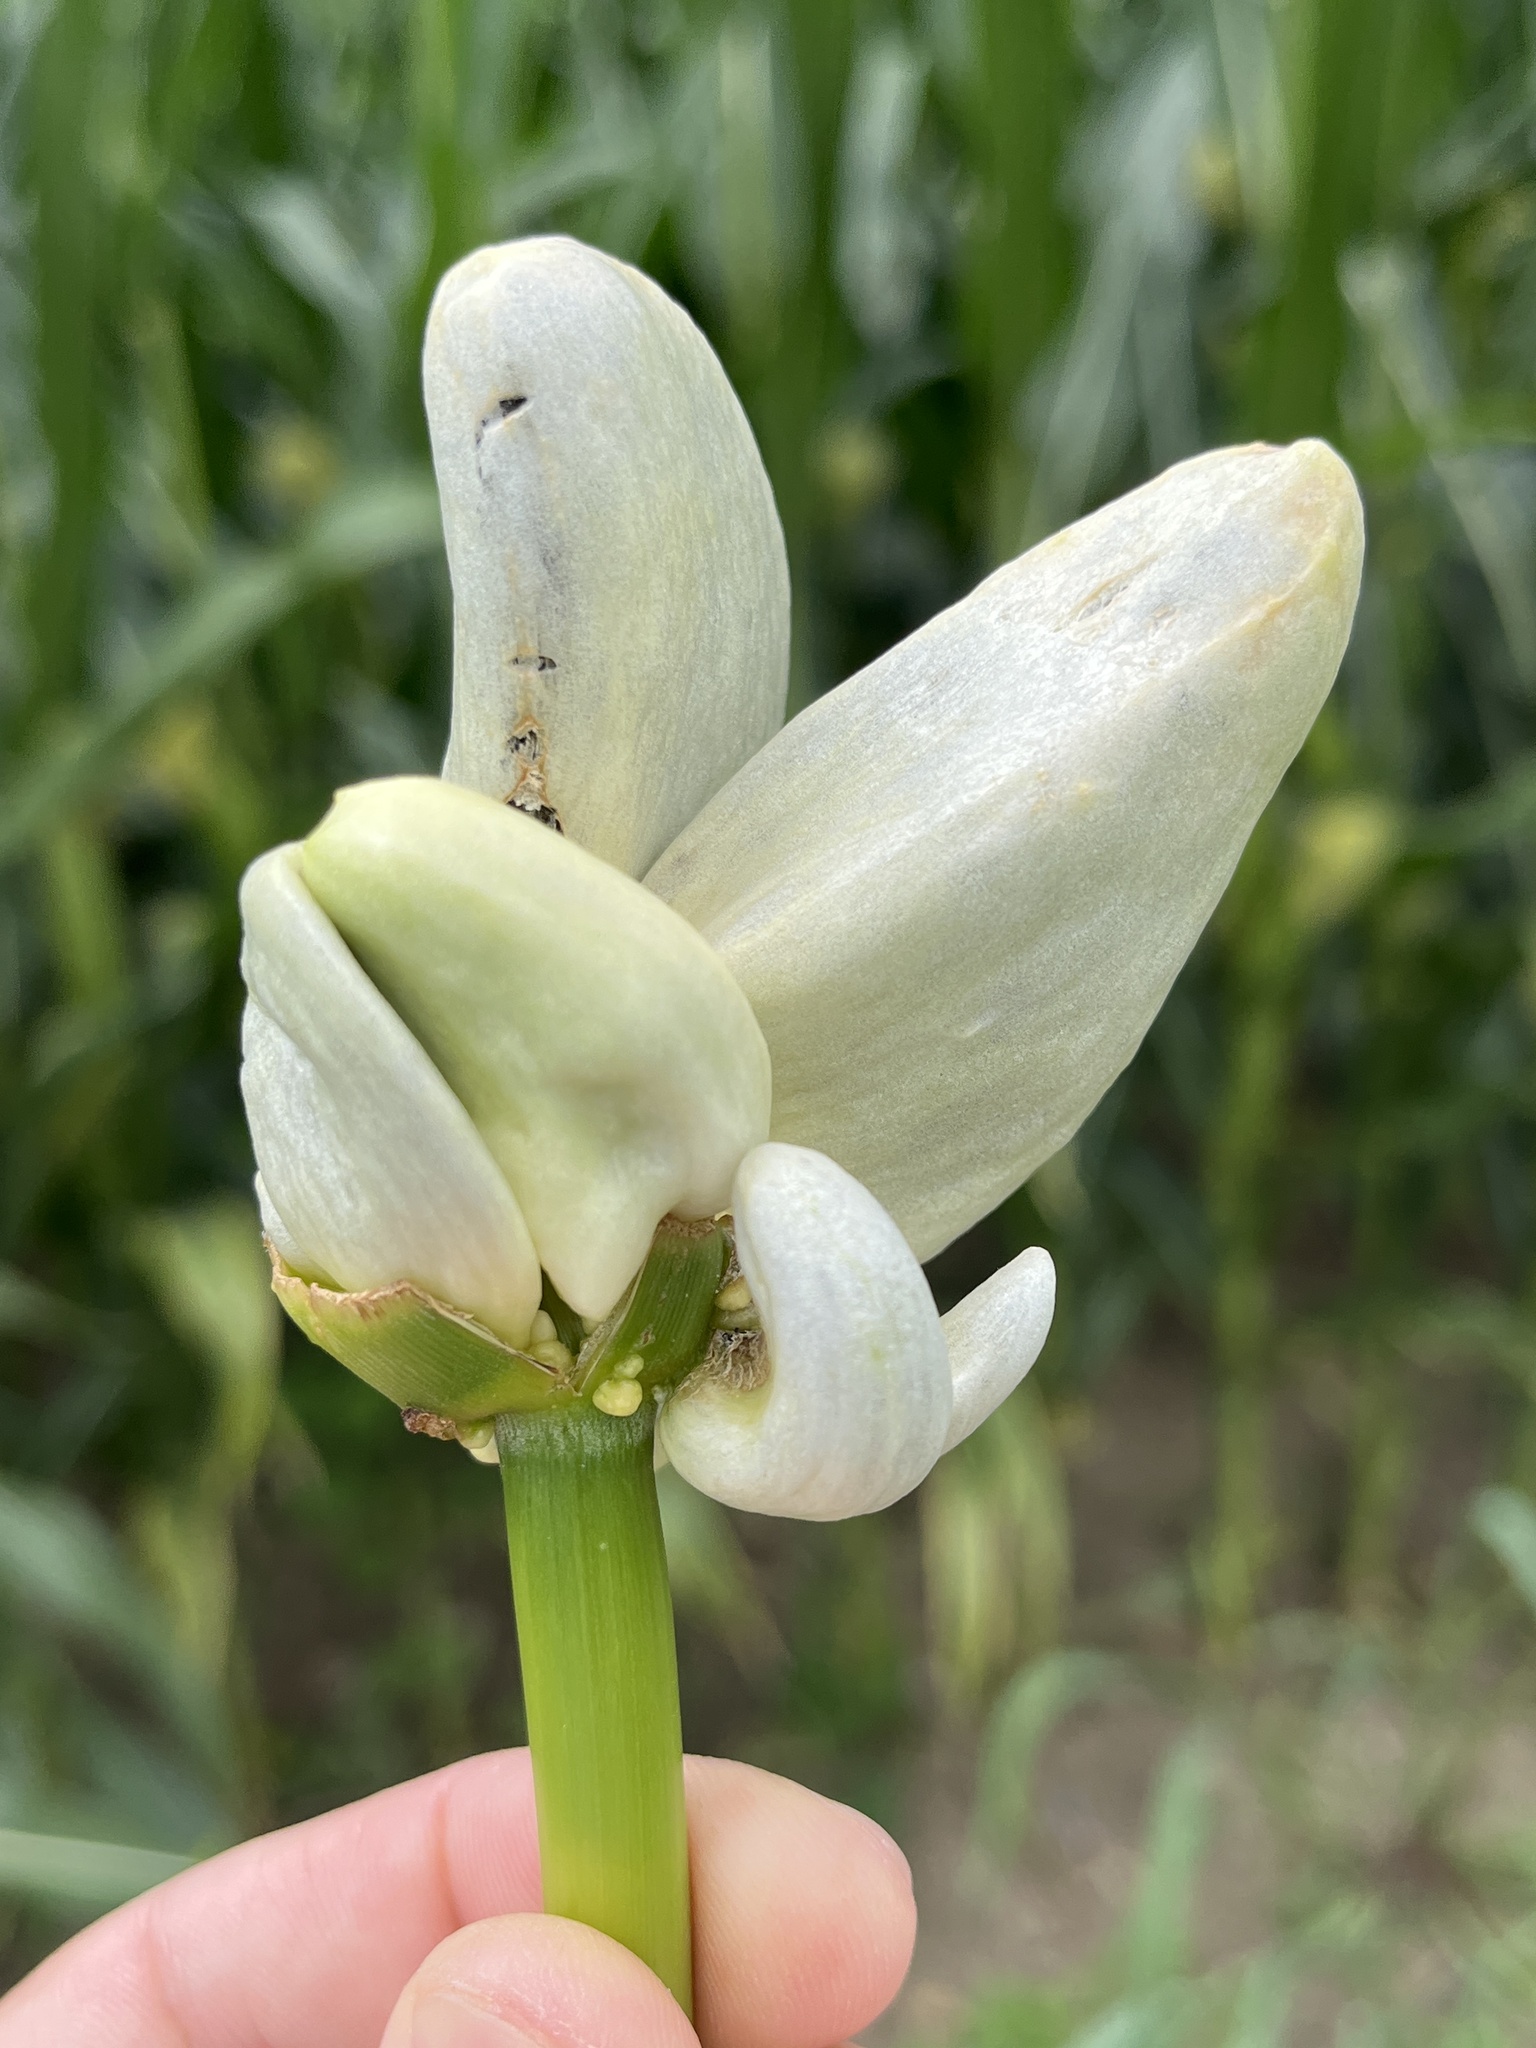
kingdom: Fungi
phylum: Basidiomycota
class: Ustilaginomycetes
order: Ustilaginales
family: Ustilaginaceae
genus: Mycosarcoma
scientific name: Mycosarcoma maydis
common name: Corn smut
